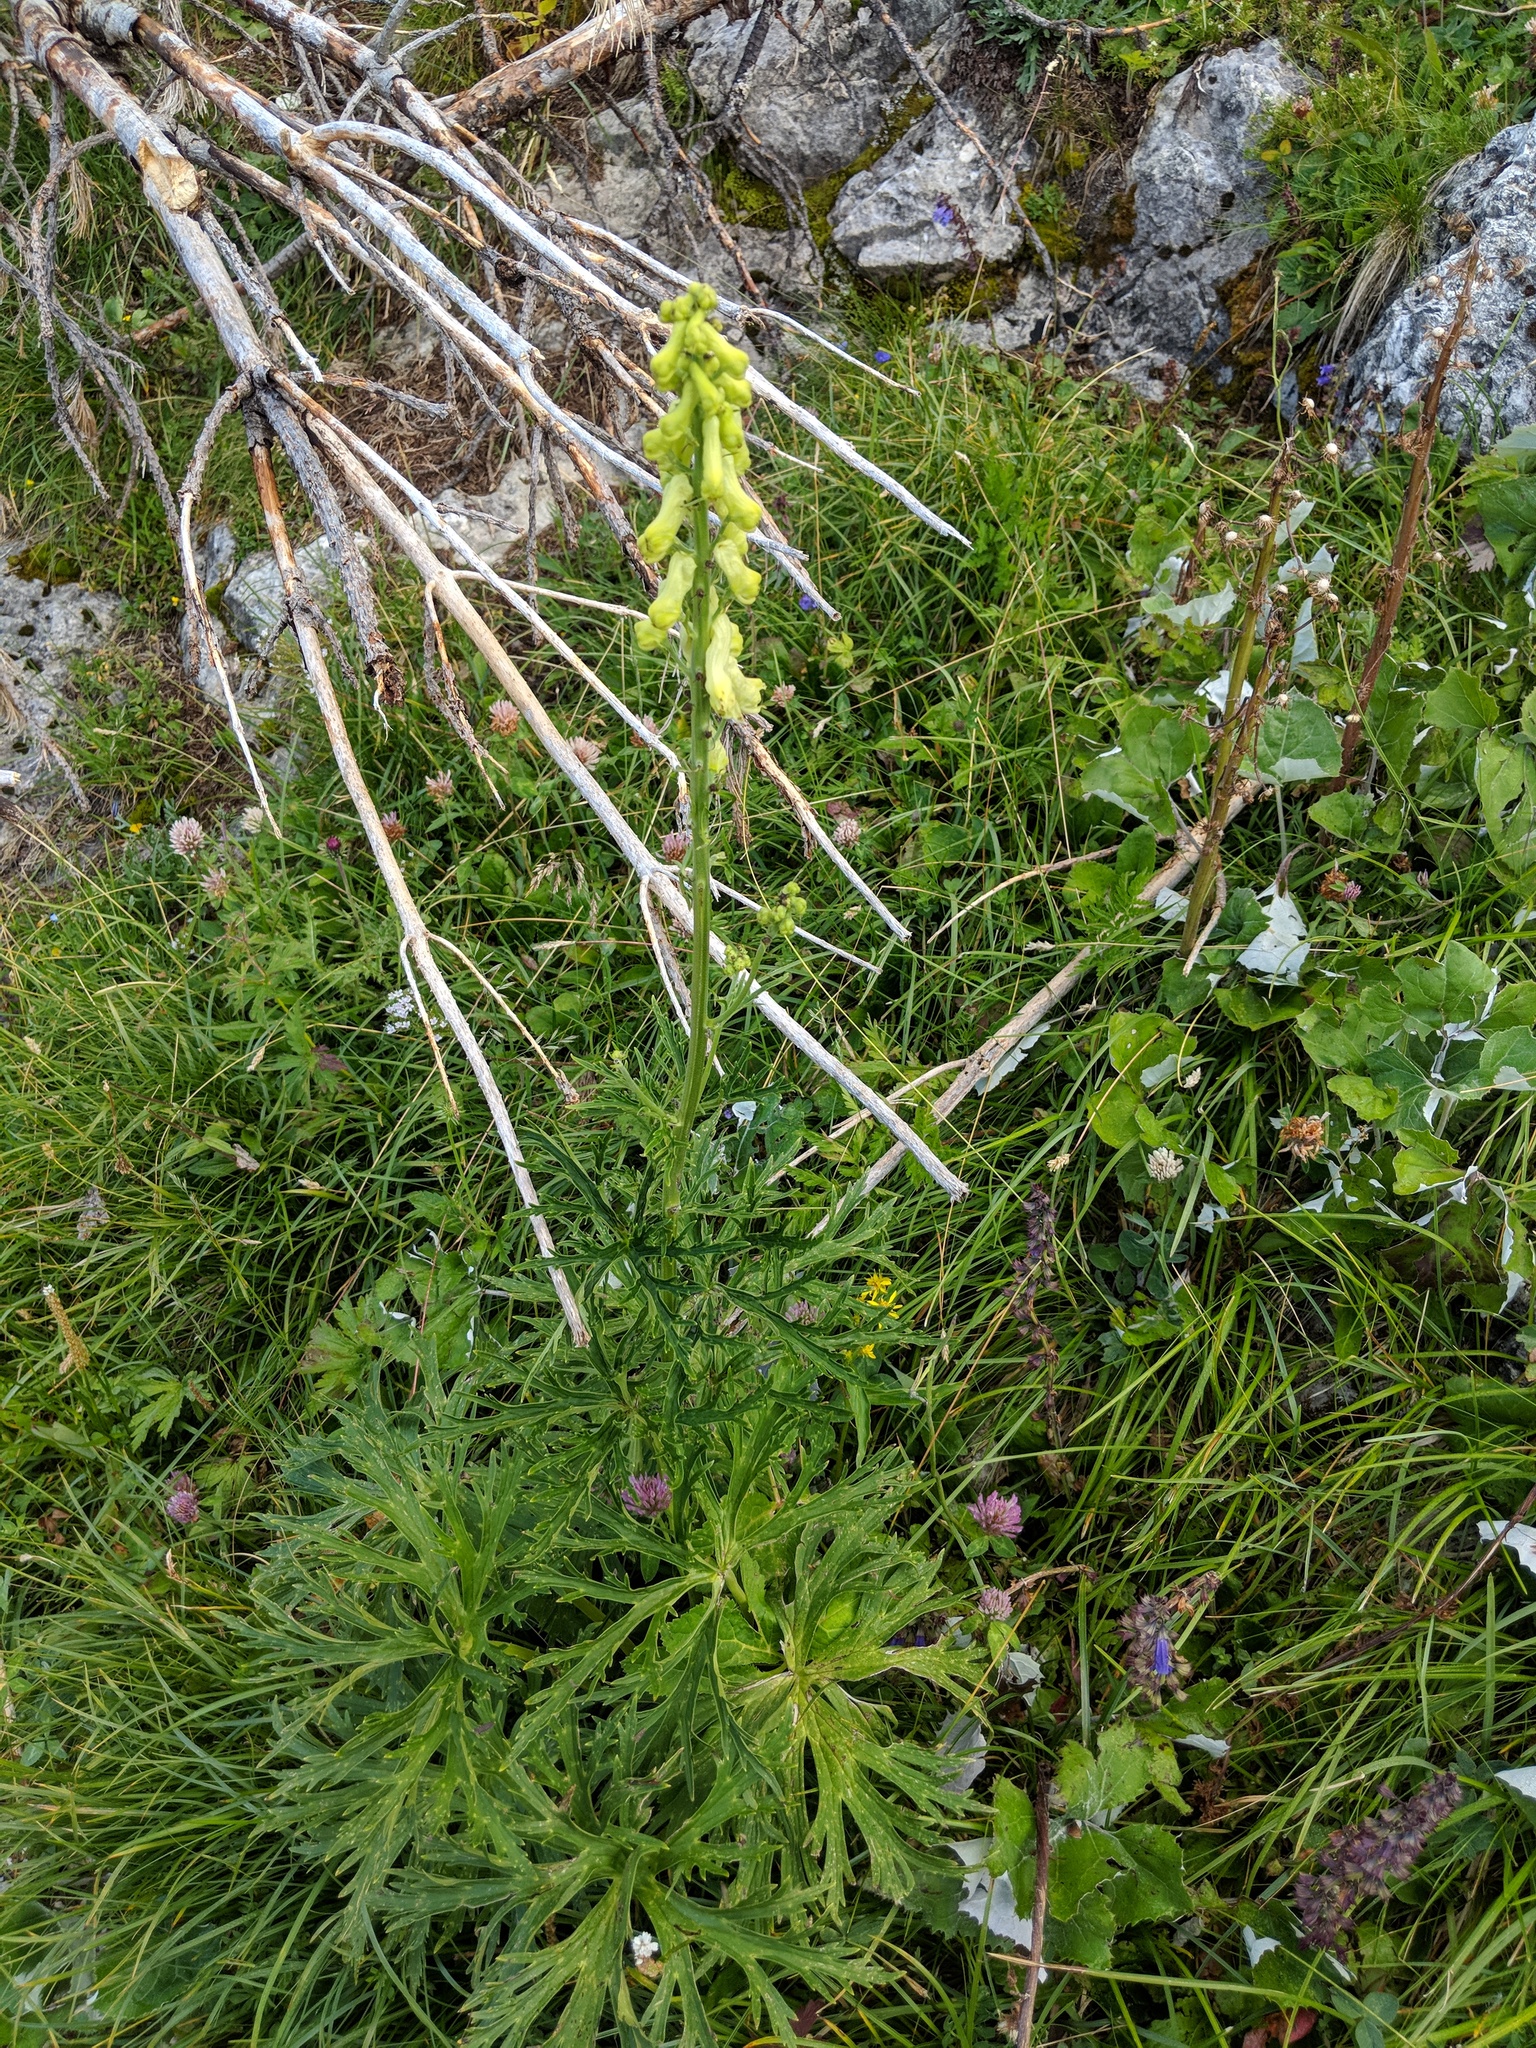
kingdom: Plantae
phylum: Tracheophyta
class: Magnoliopsida
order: Ranunculales
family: Ranunculaceae
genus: Aconitum
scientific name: Aconitum lycoctonum
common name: Wolf's-bane
